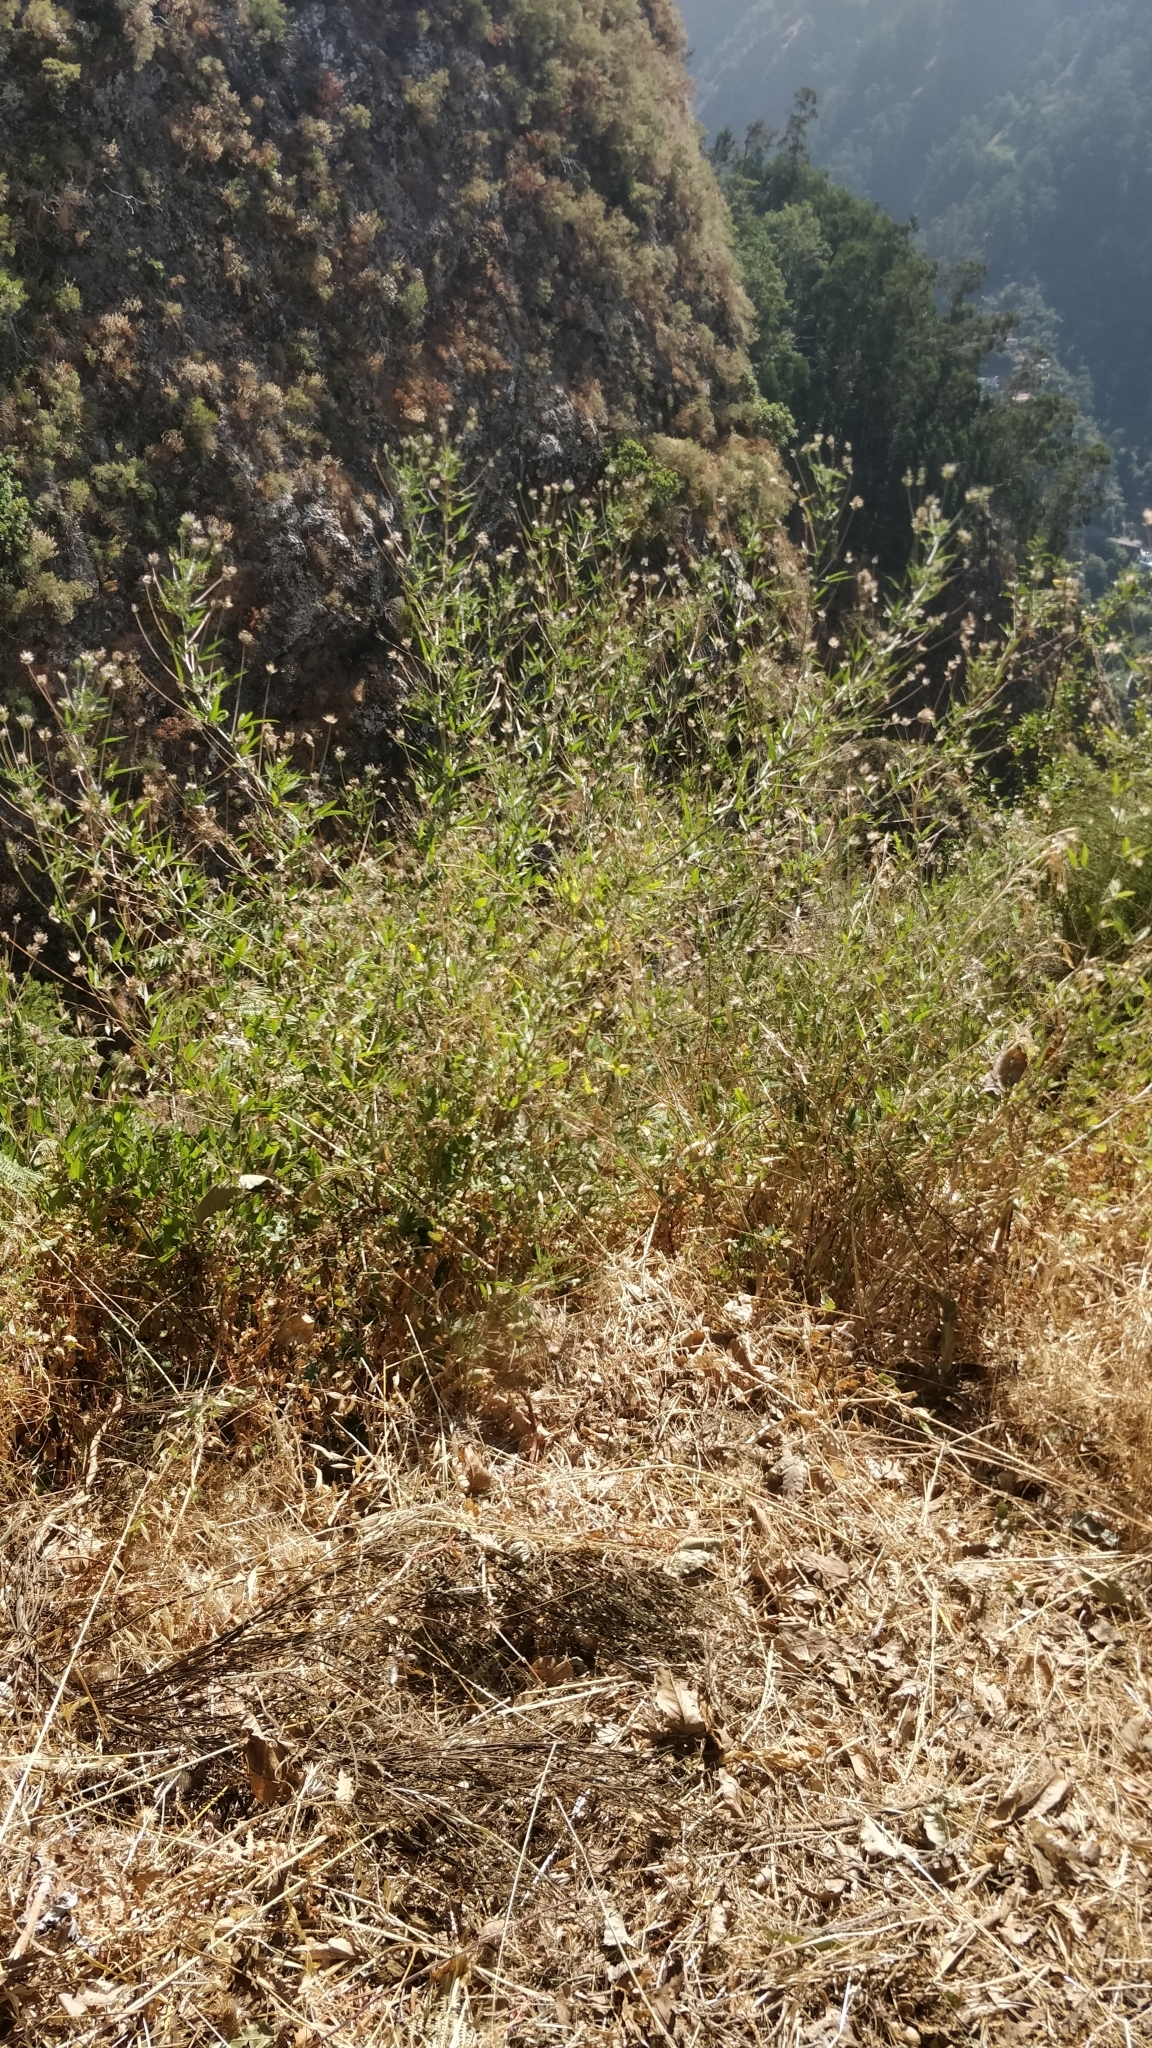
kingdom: Plantae
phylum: Tracheophyta
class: Magnoliopsida
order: Fabales
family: Fabaceae
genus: Bituminaria
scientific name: Bituminaria bituminosa
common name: Arabian pea
